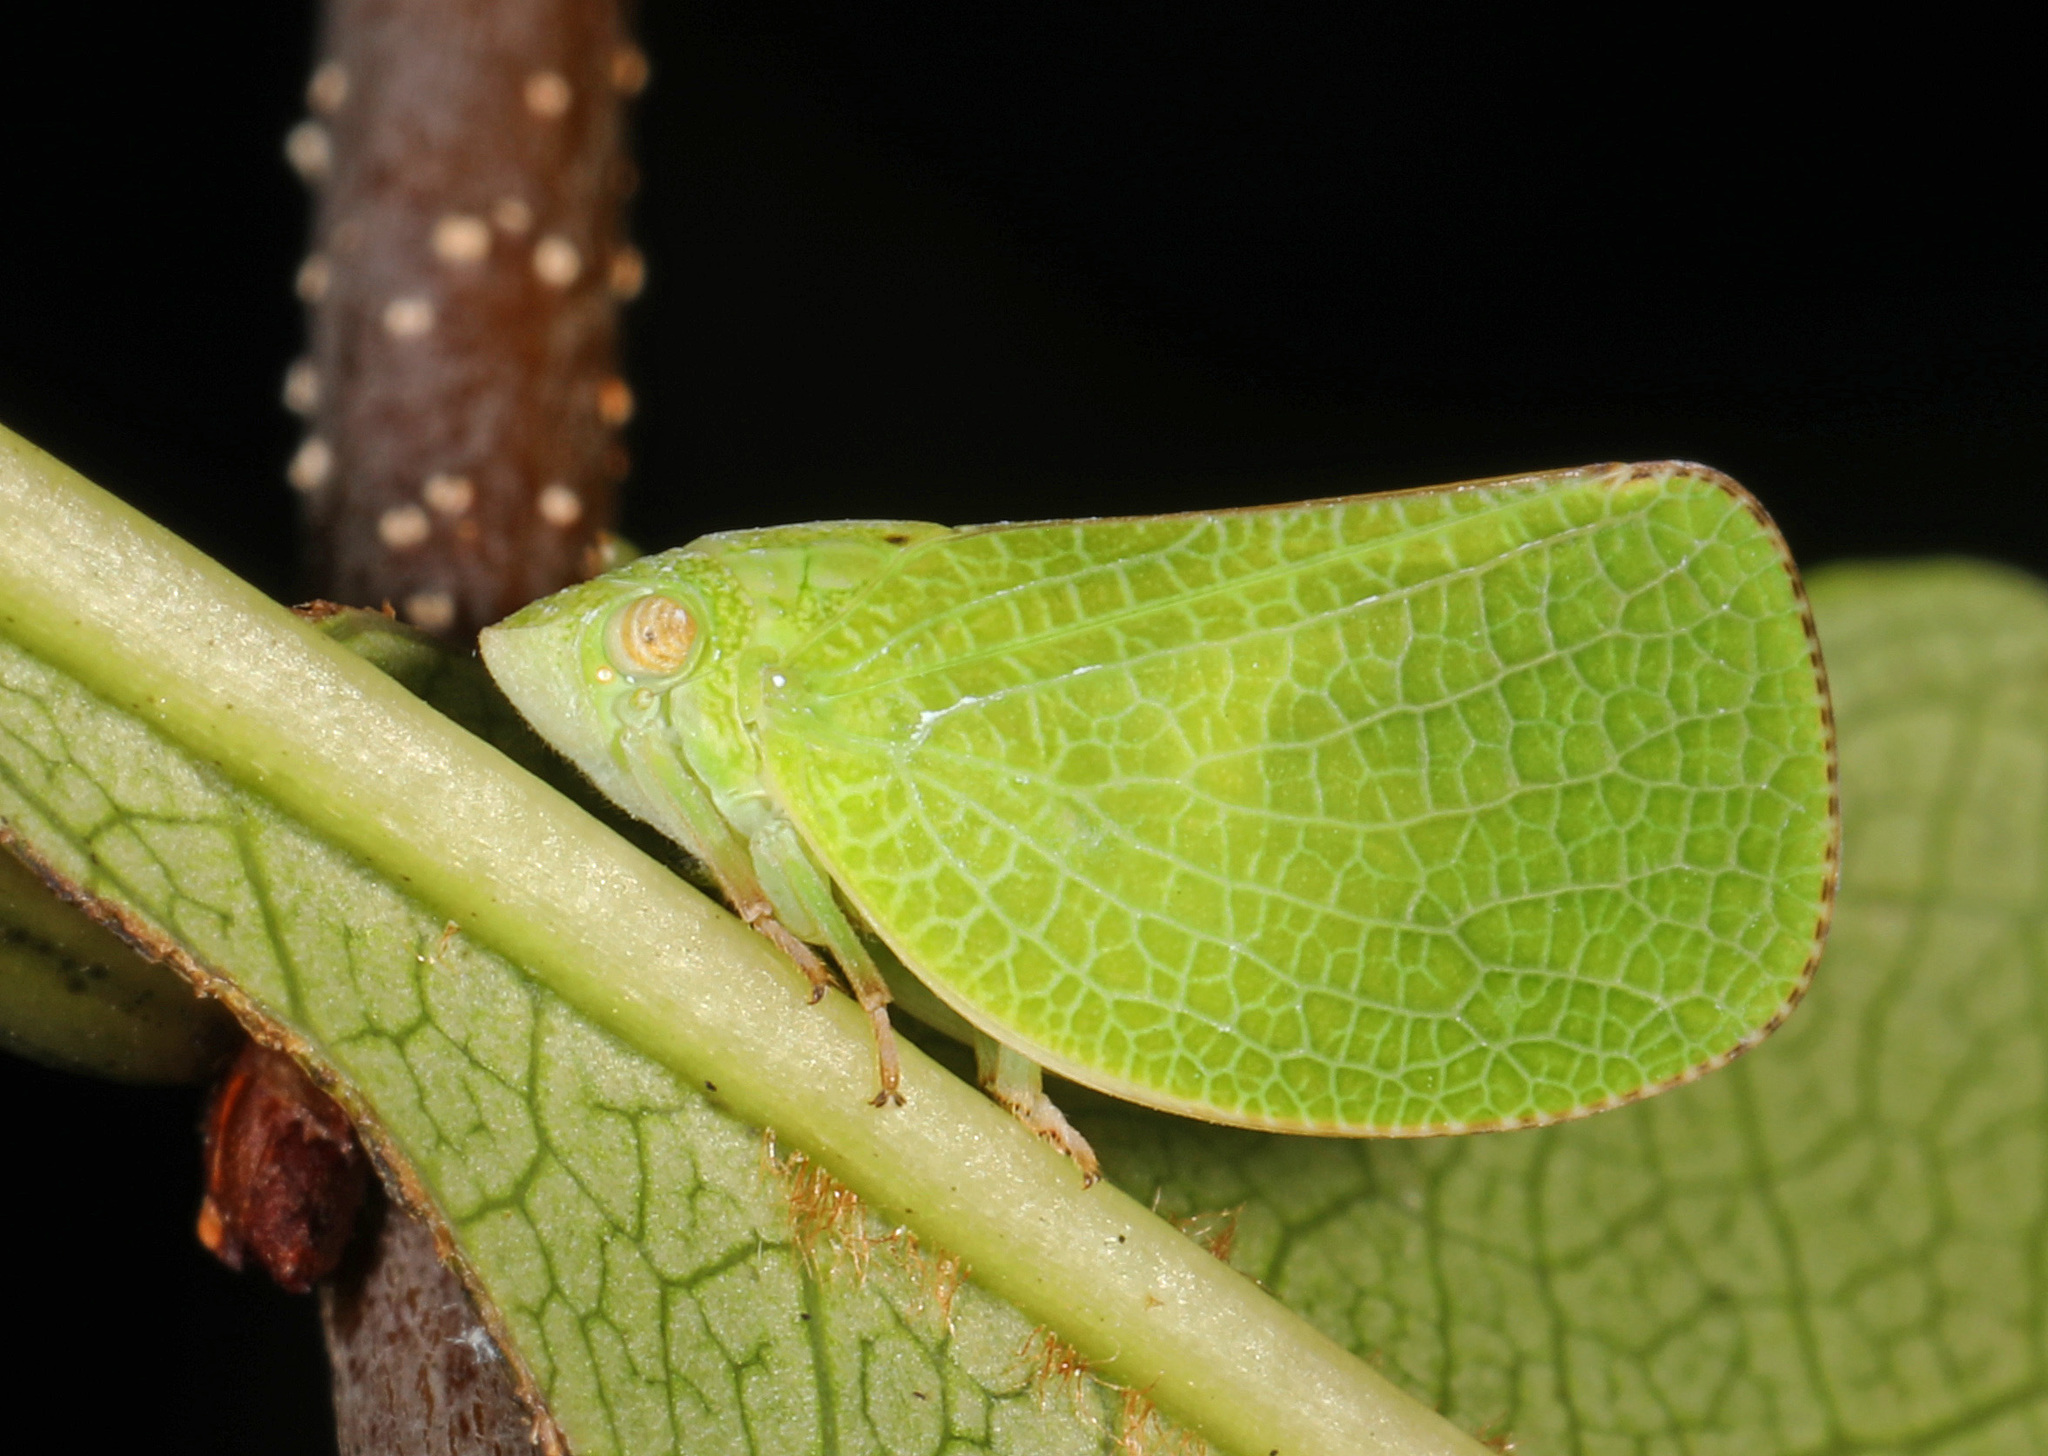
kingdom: Animalia
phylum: Arthropoda
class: Insecta
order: Hemiptera
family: Acanaloniidae
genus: Acanalonia
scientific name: Acanalonia conica
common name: Green cone-headed planthopper
